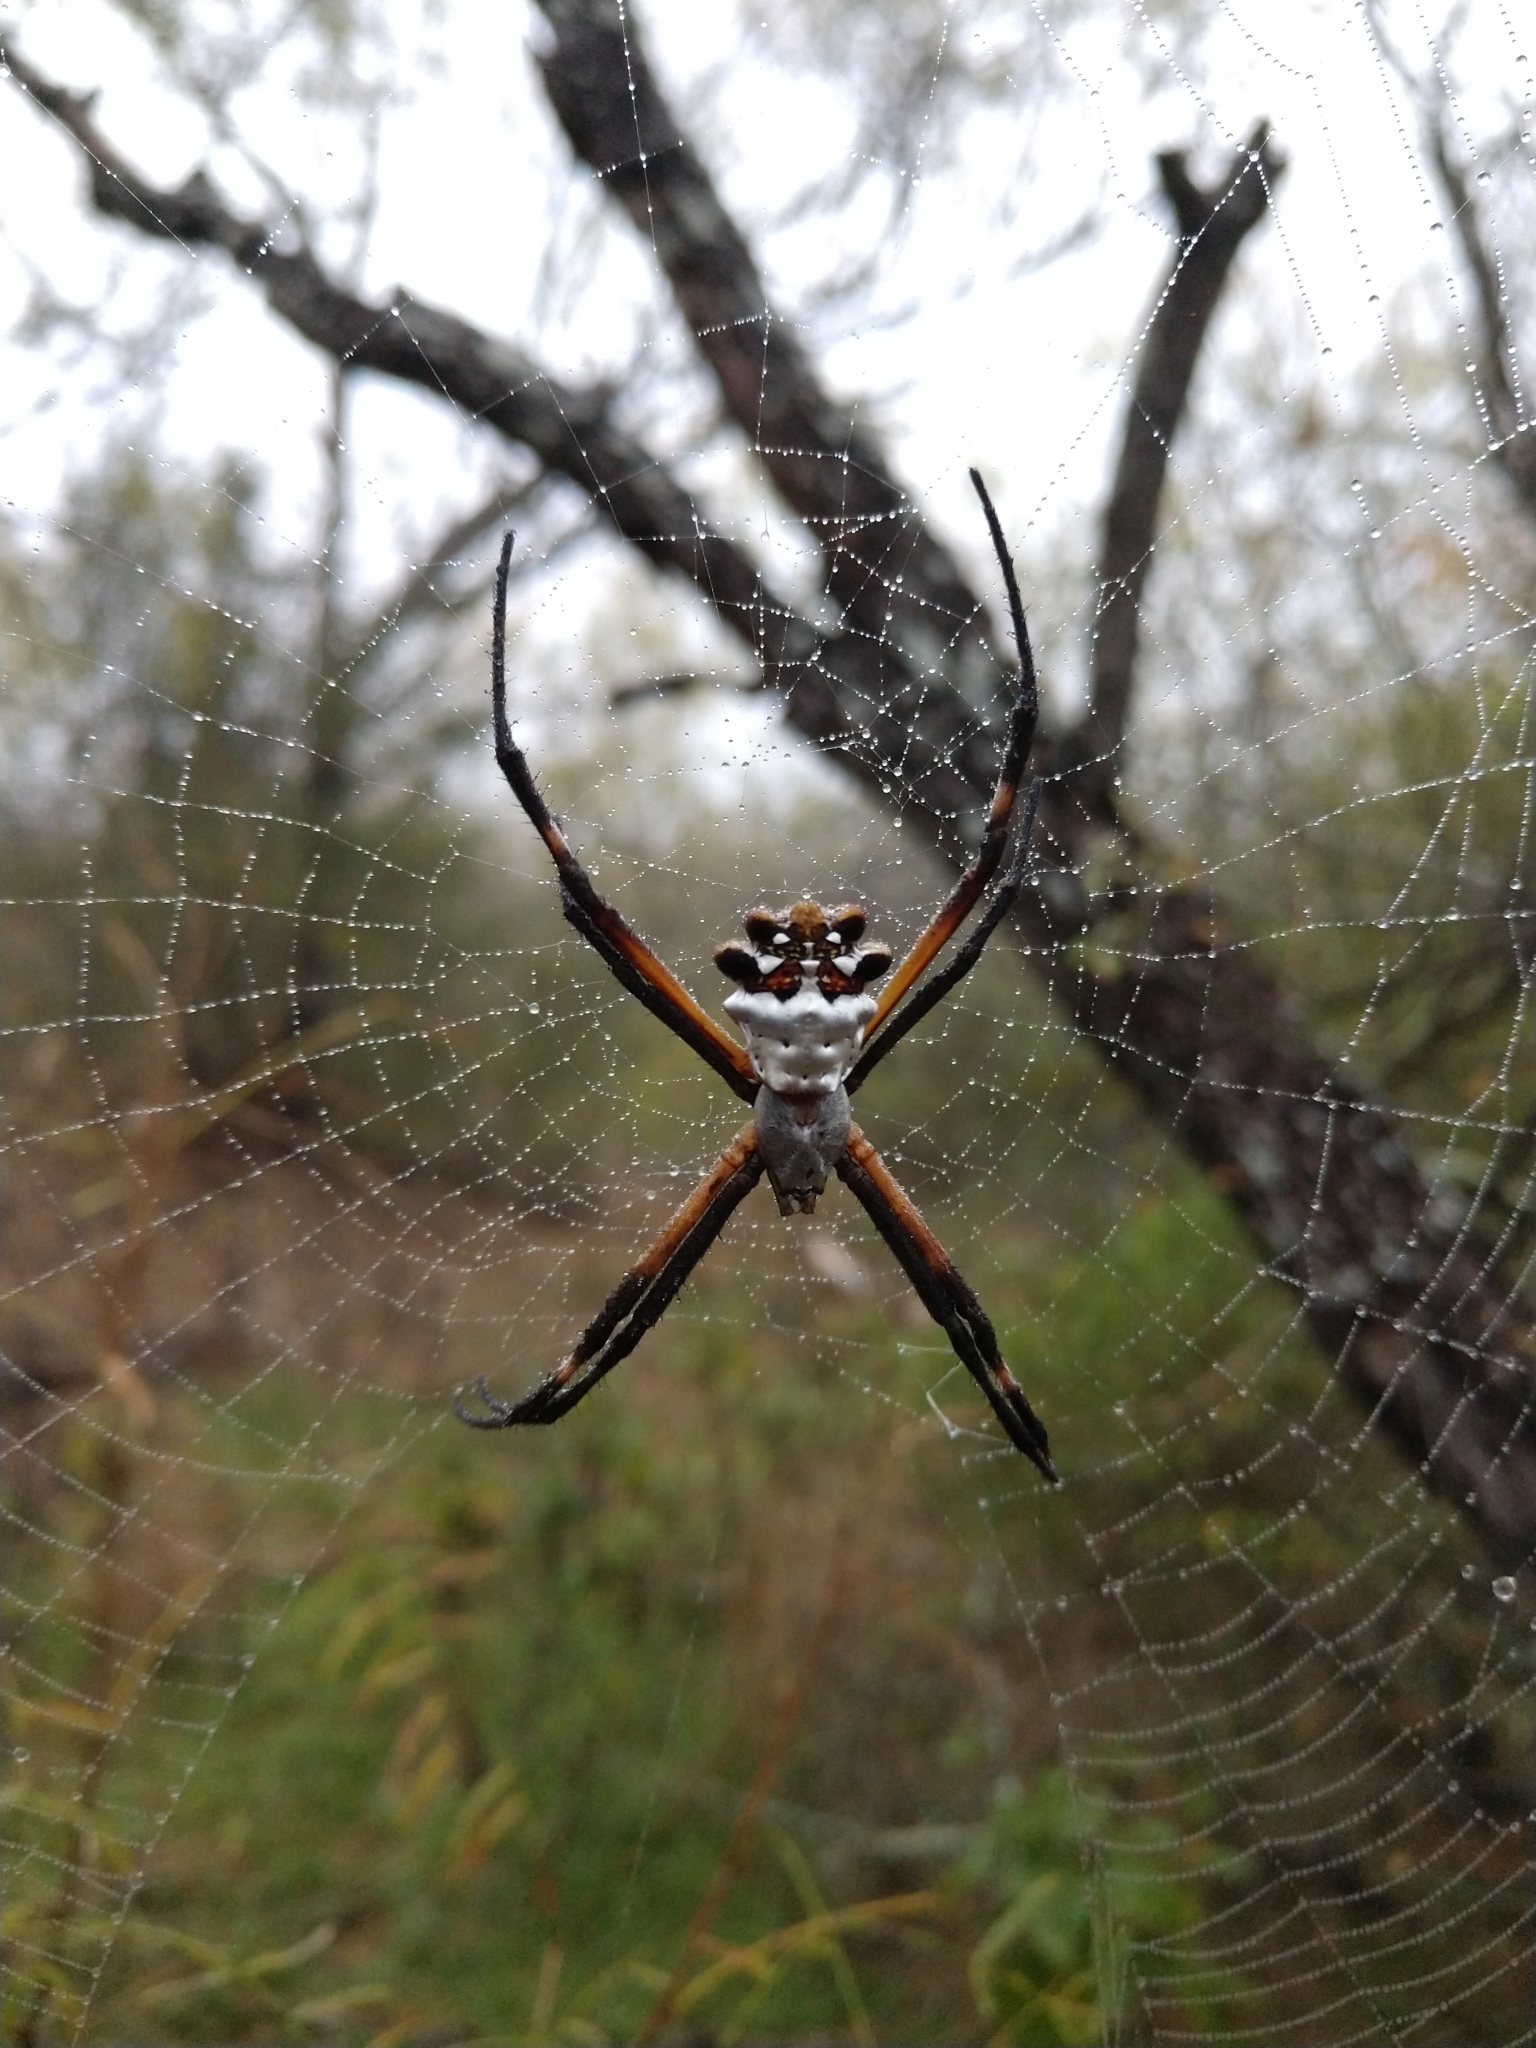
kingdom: Animalia
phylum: Arthropoda
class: Arachnida
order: Araneae
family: Araneidae
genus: Argiope
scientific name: Argiope argentata
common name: Orb weavers
